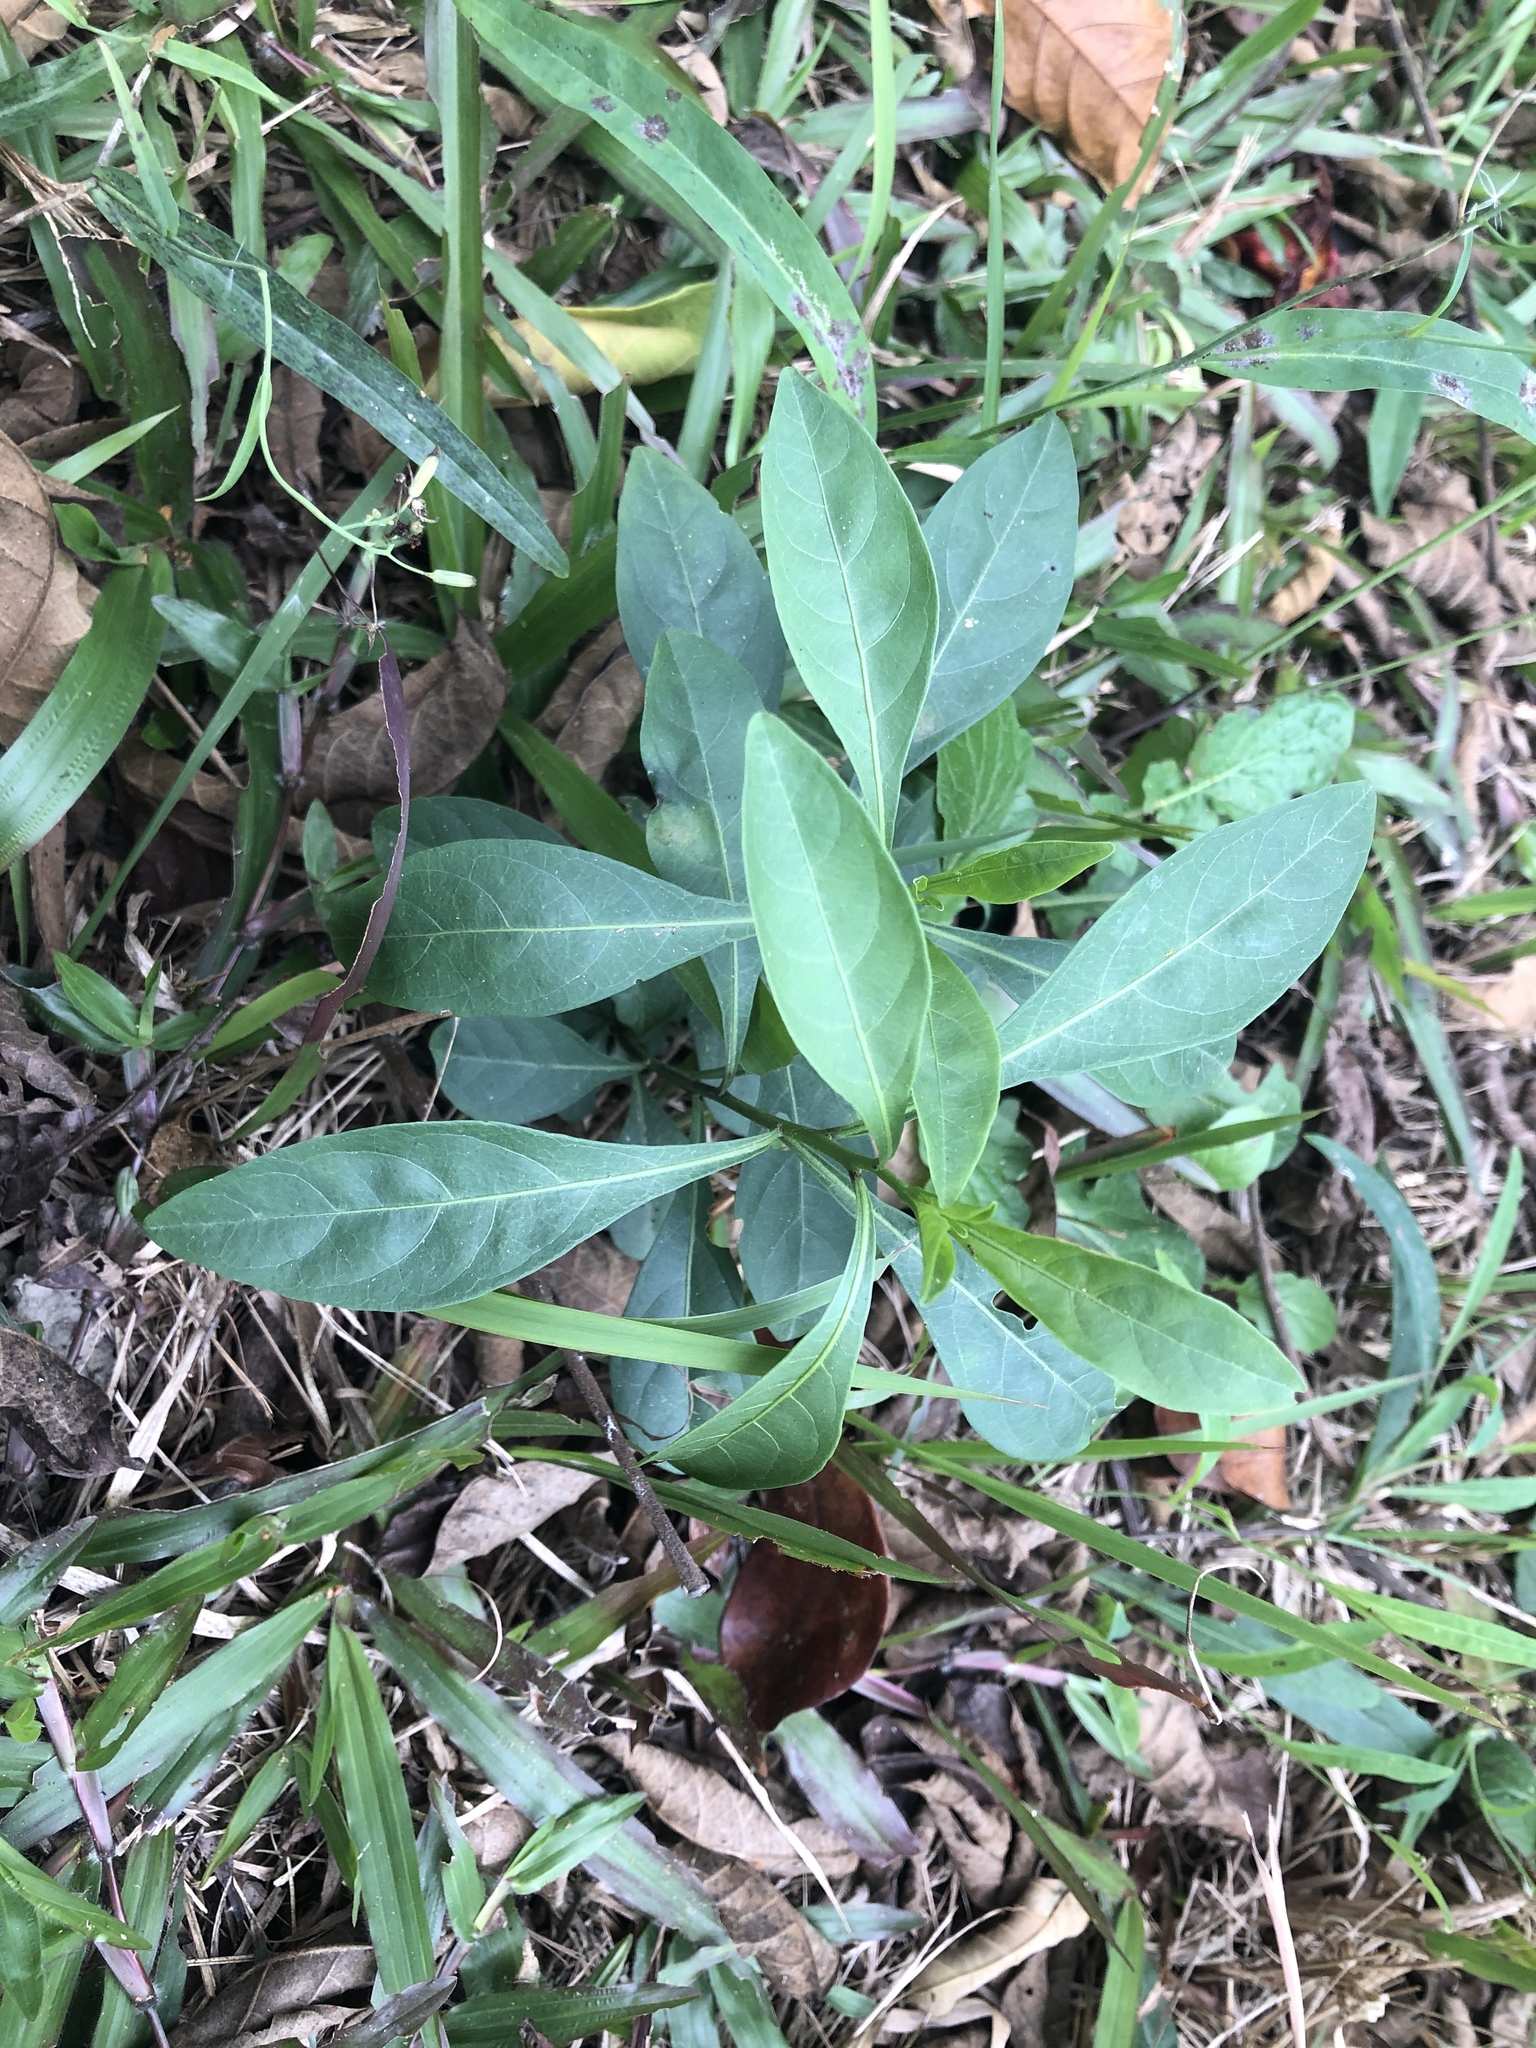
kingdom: Plantae
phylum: Tracheophyta
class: Magnoliopsida
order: Solanales
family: Solanaceae
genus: Solanum
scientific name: Solanum diphyllum
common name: Twoleaf nightshade
